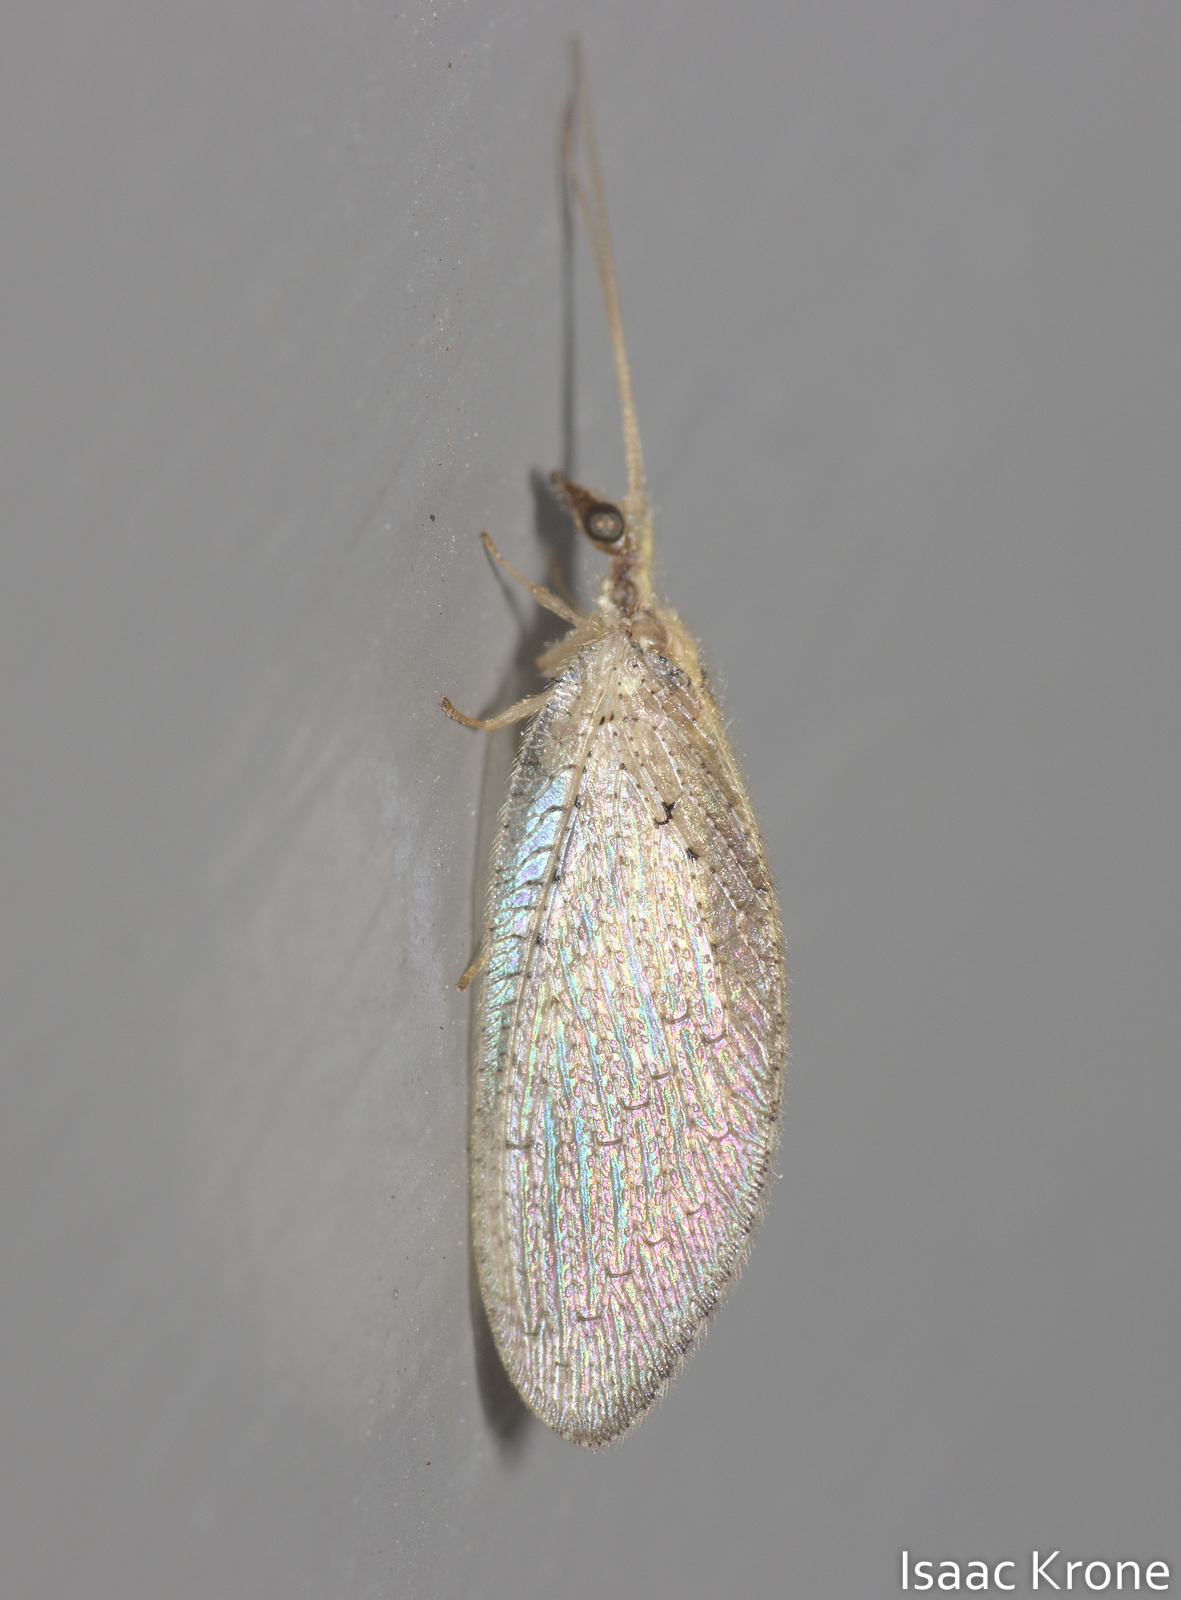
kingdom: Animalia
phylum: Arthropoda
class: Insecta
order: Neuroptera
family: Hemerobiidae
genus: Hemerobius
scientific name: Hemerobius
